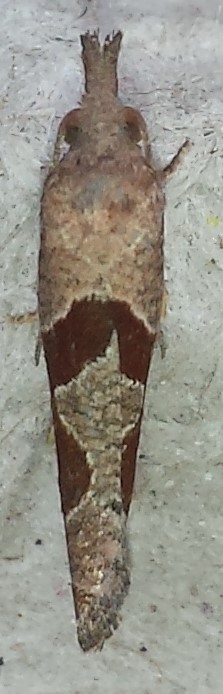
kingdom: Animalia
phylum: Arthropoda
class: Insecta
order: Lepidoptera
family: Tortricidae
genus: Pelochrista
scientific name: Pelochrista similiana
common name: Similar eucosma
